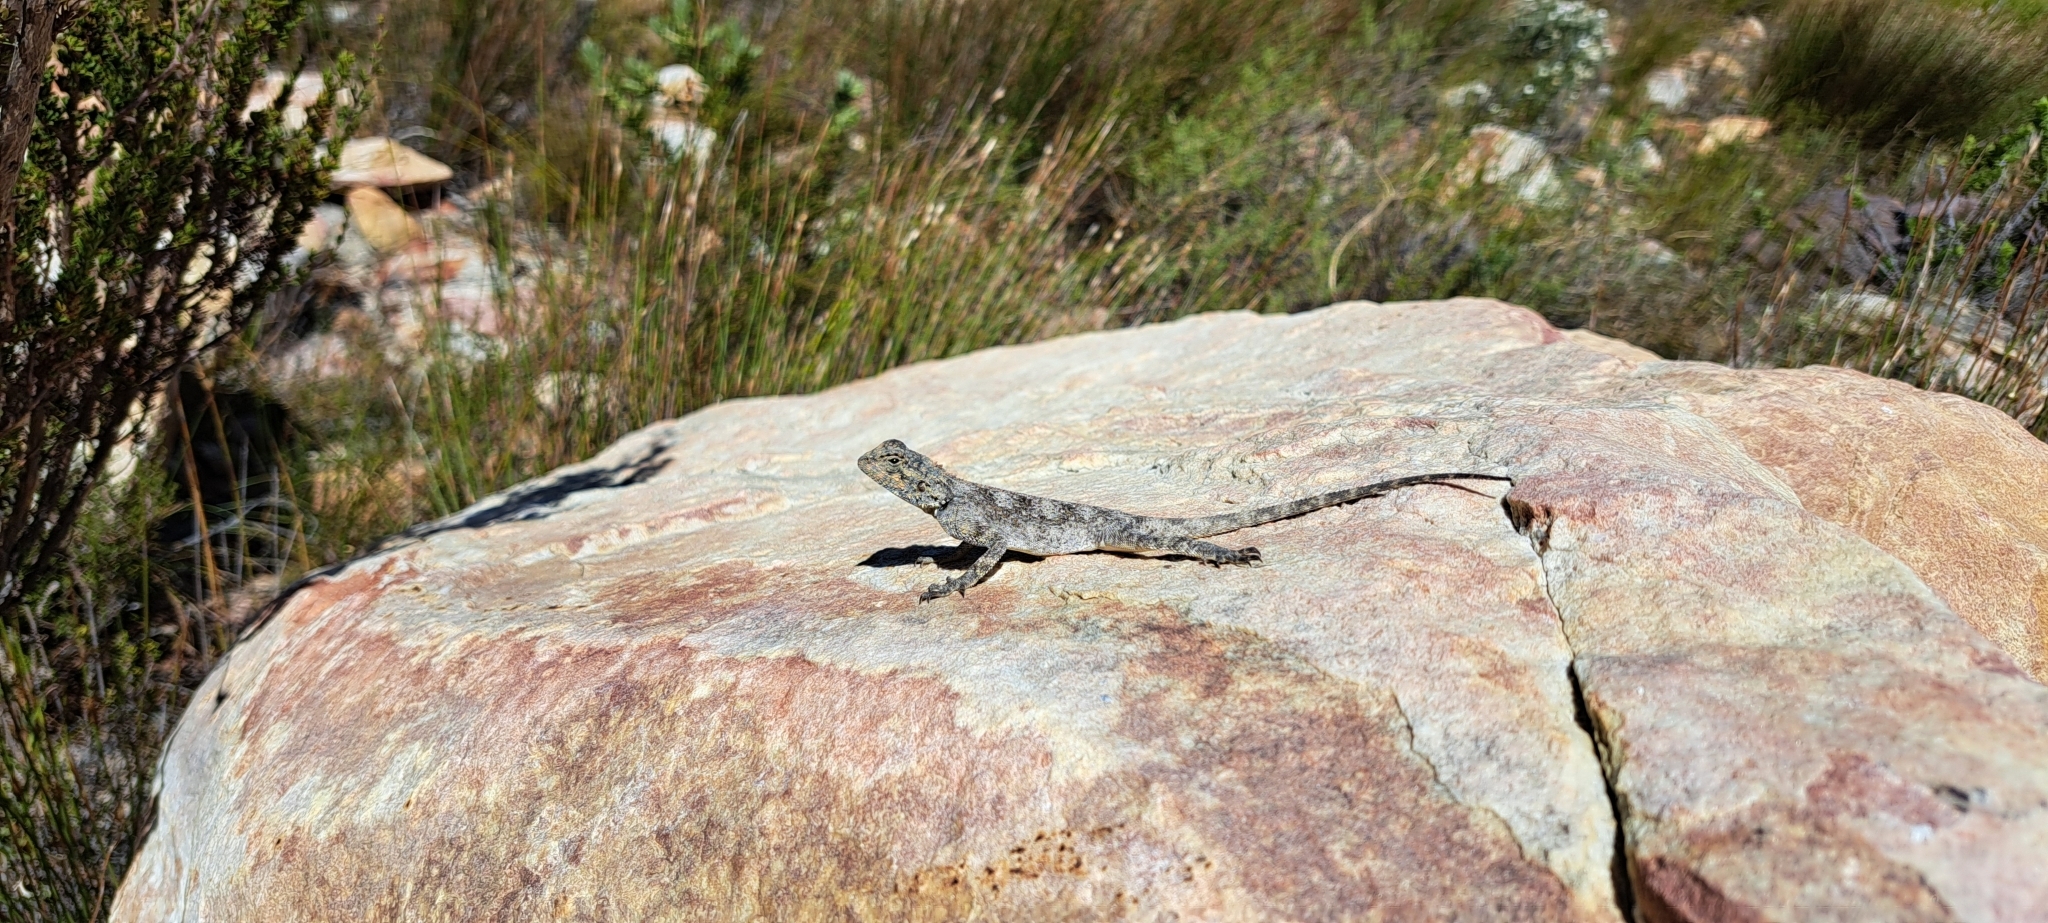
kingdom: Animalia
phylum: Chordata
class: Squamata
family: Agamidae
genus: Agama
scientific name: Agama atra
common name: Southern african rock agama
